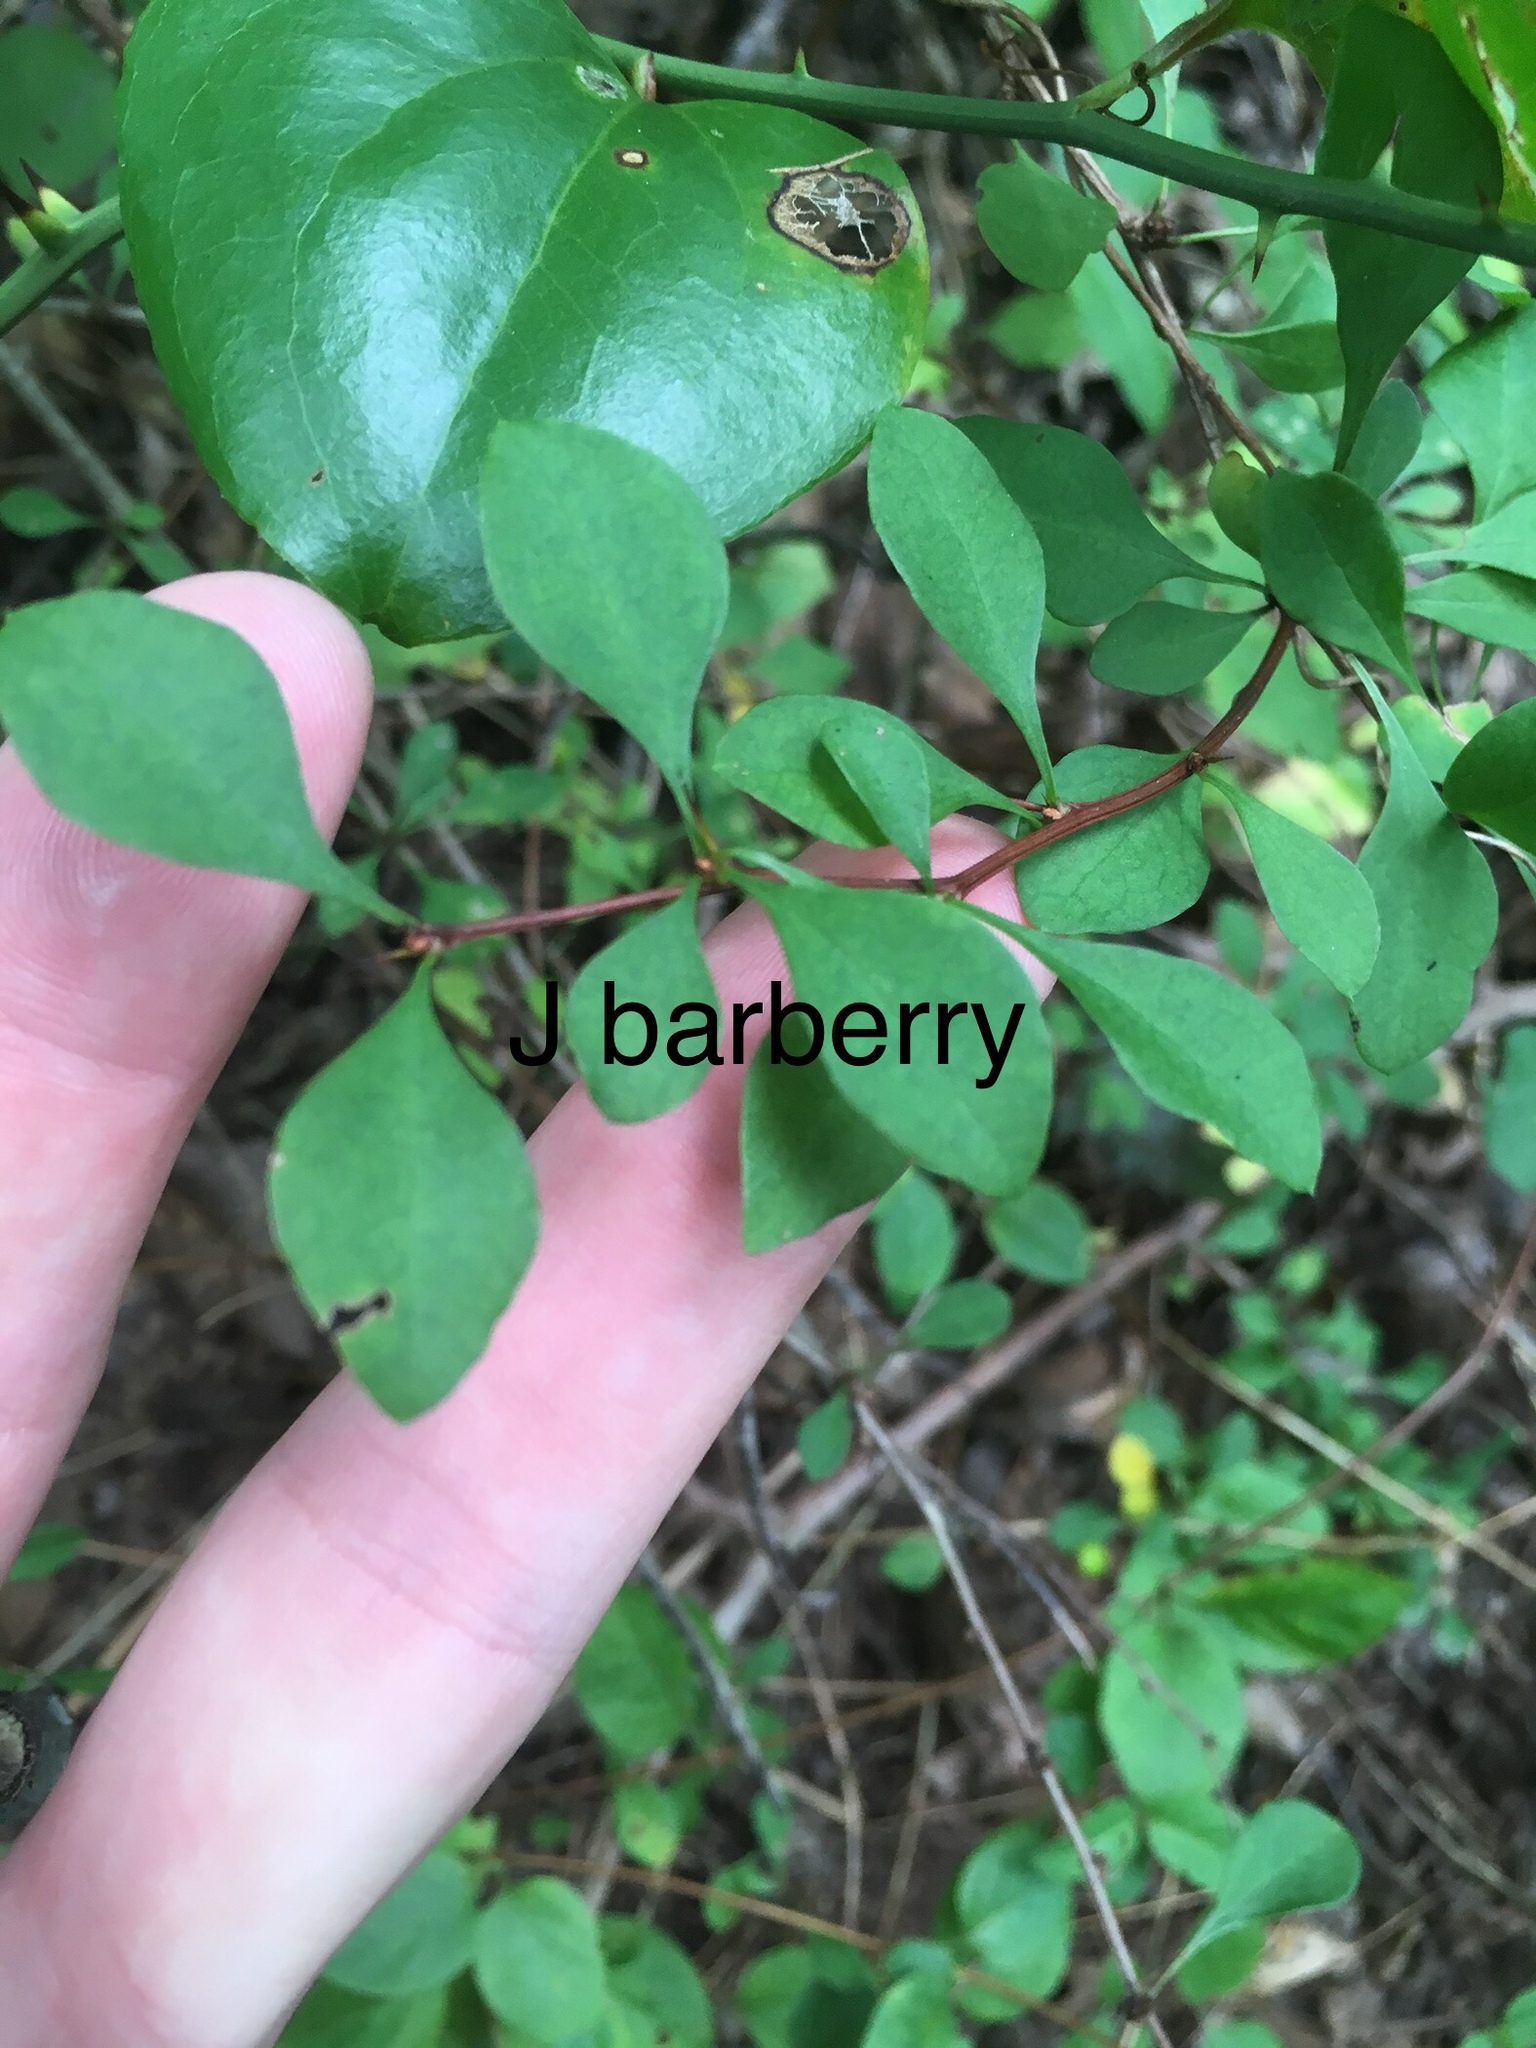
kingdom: Plantae
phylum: Tracheophyta
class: Magnoliopsida
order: Ranunculales
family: Berberidaceae
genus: Berberis
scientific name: Berberis thunbergii
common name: Japanese barberry
